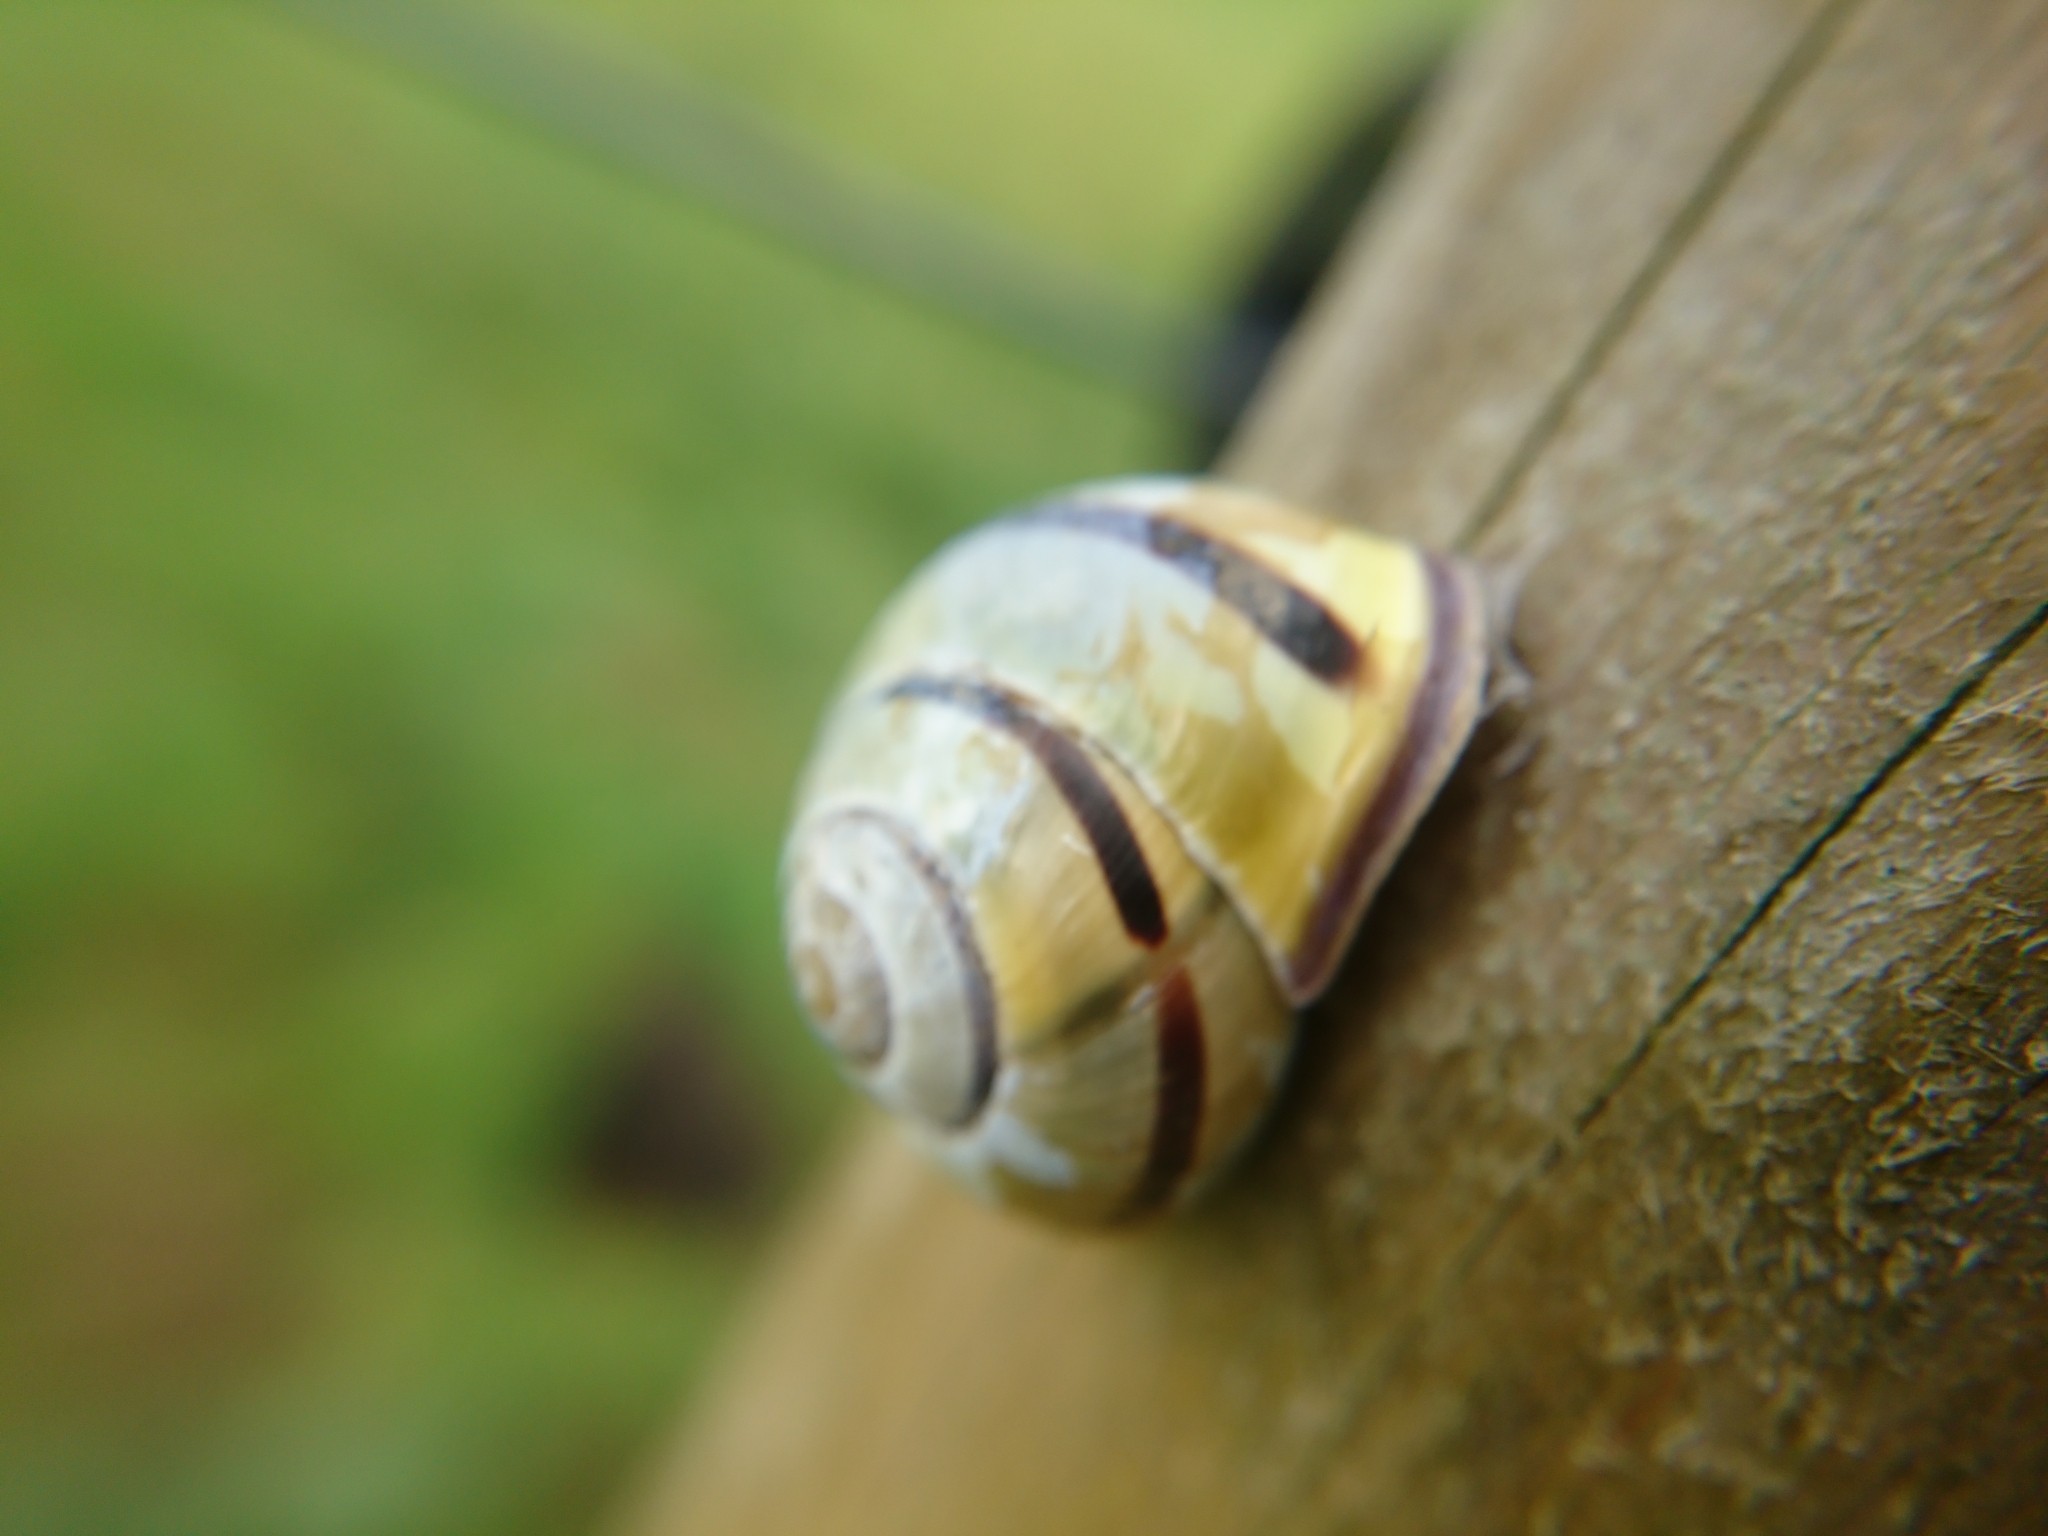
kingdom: Animalia
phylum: Mollusca
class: Gastropoda
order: Stylommatophora
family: Helicidae
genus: Cepaea
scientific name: Cepaea nemoralis
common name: Grovesnail
